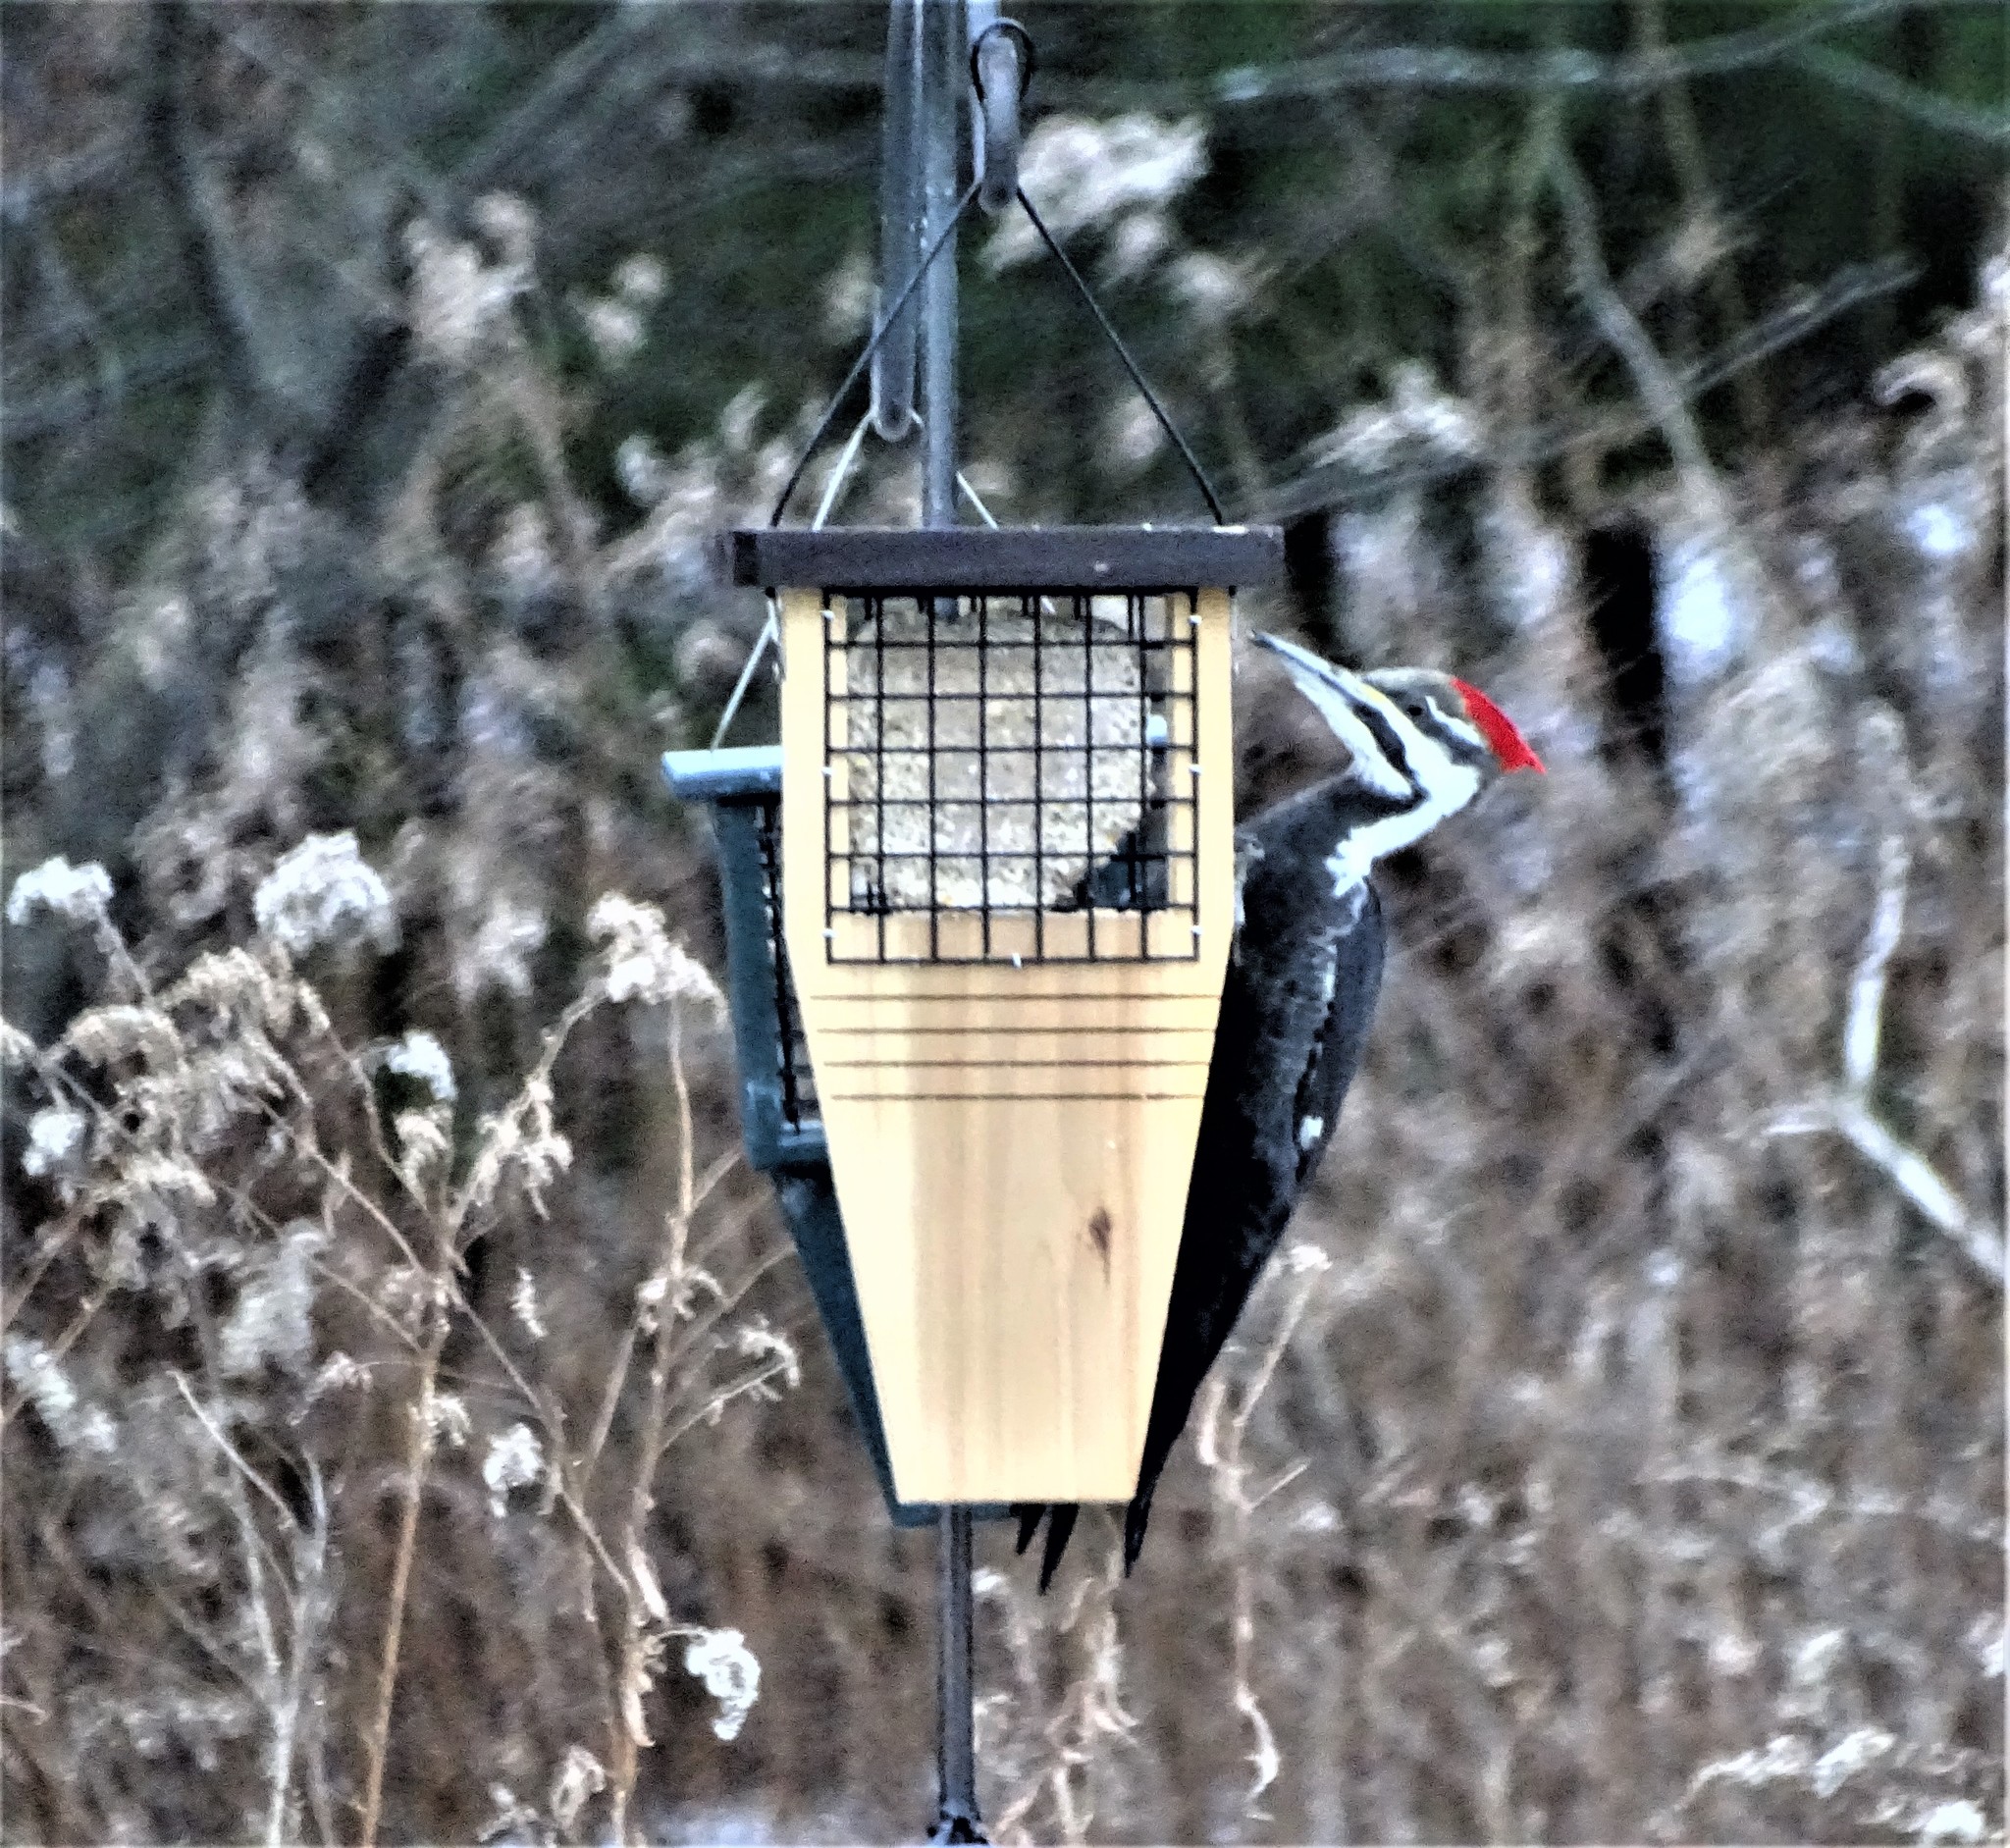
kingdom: Animalia
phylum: Chordata
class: Aves
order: Piciformes
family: Picidae
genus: Dryocopus
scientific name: Dryocopus pileatus
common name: Pileated woodpecker
